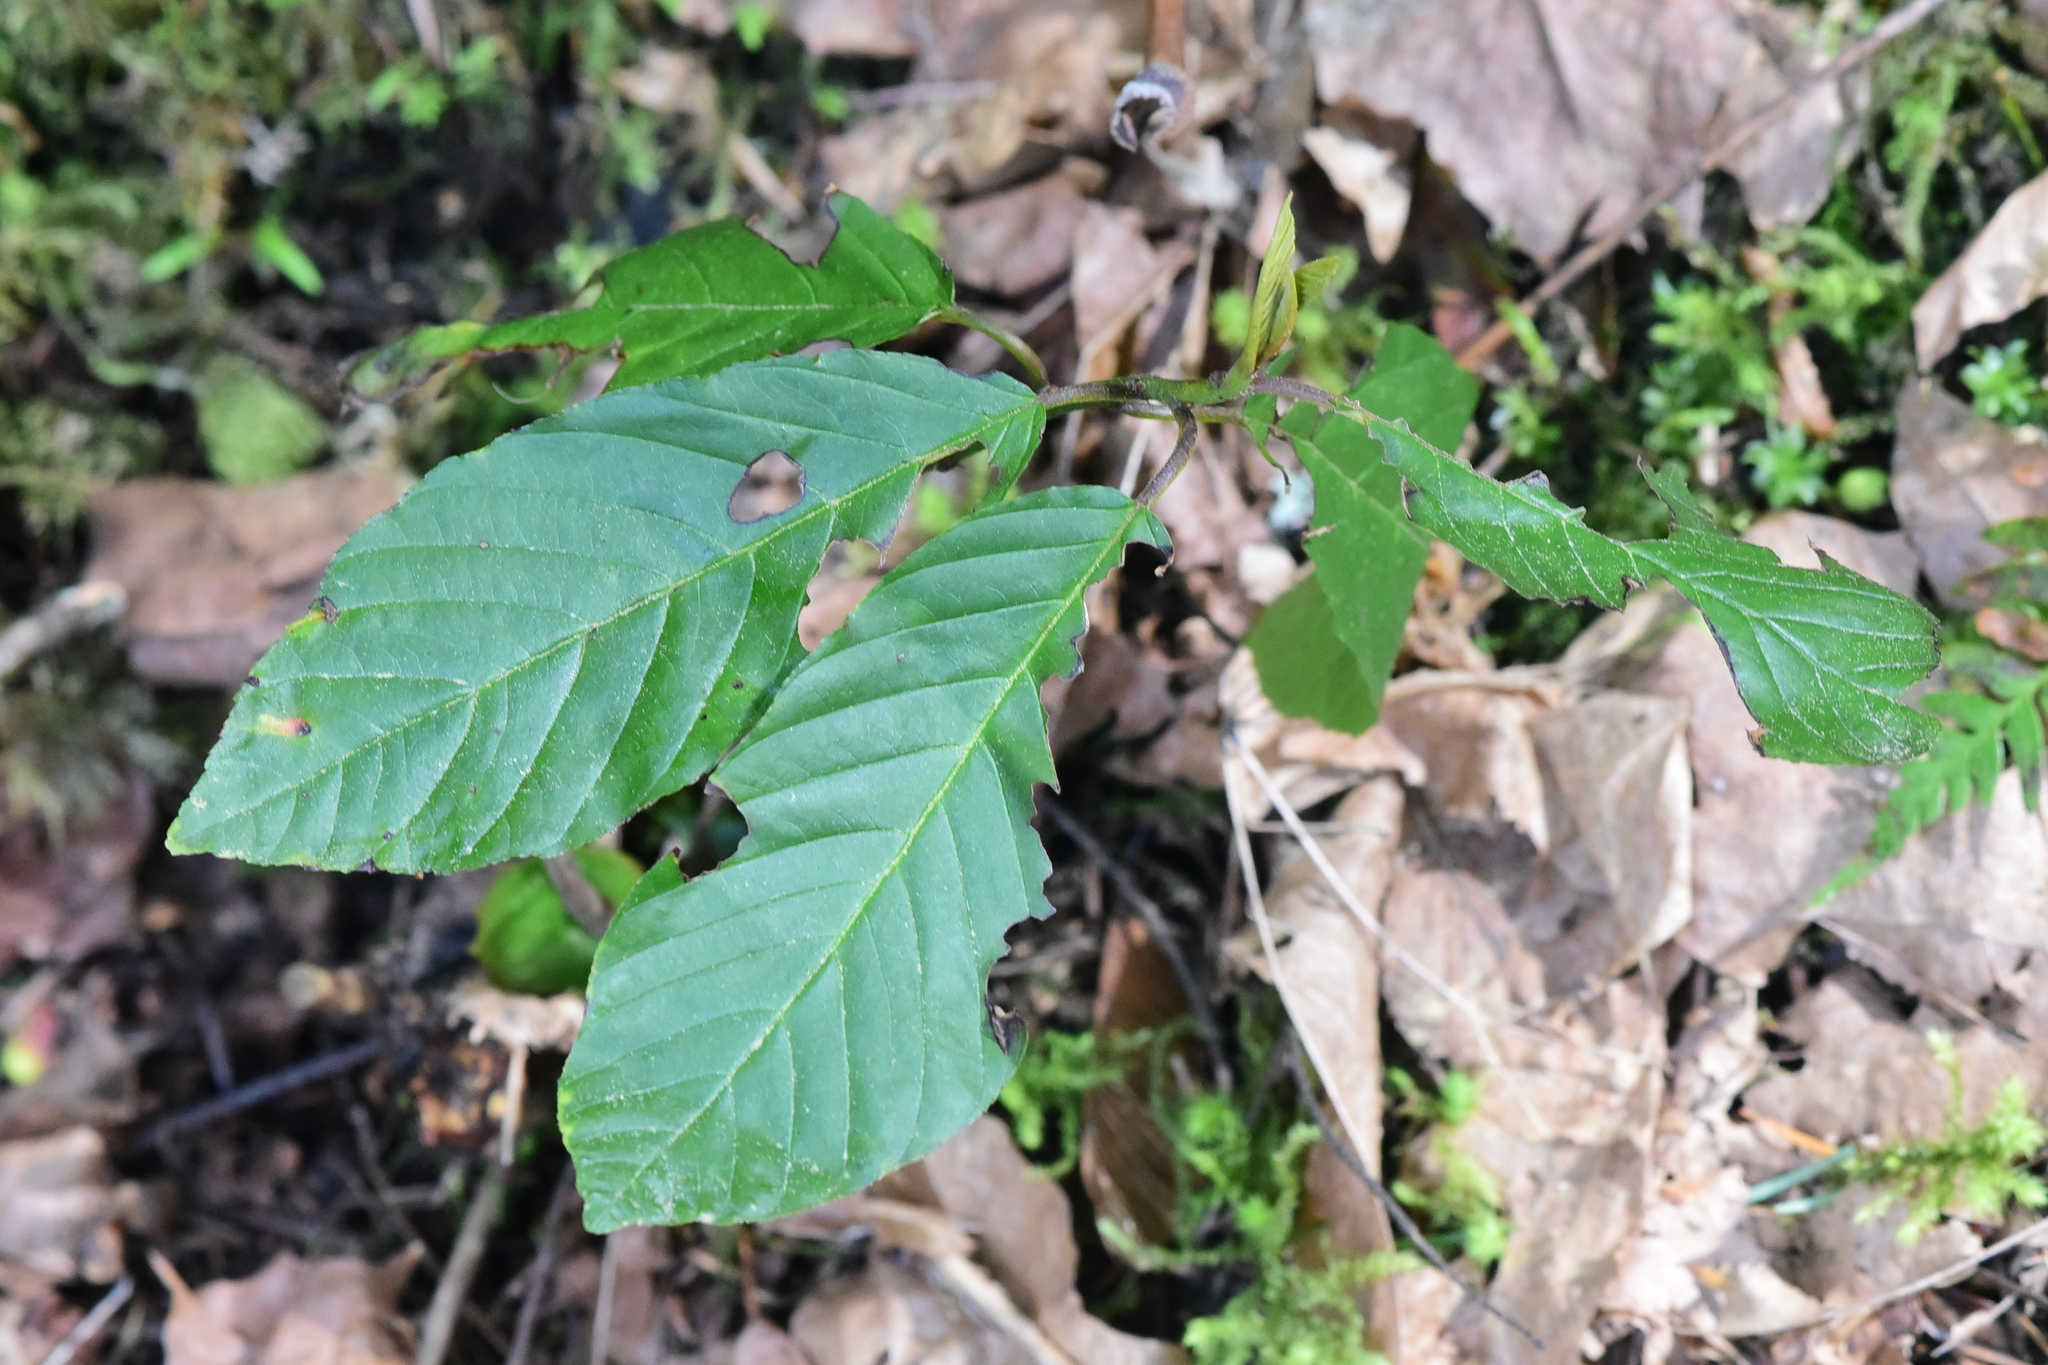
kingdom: Plantae
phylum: Tracheophyta
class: Magnoliopsida
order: Rosales
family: Rhamnaceae
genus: Frangula
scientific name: Frangula purshiana
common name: Cascara buckthorn
